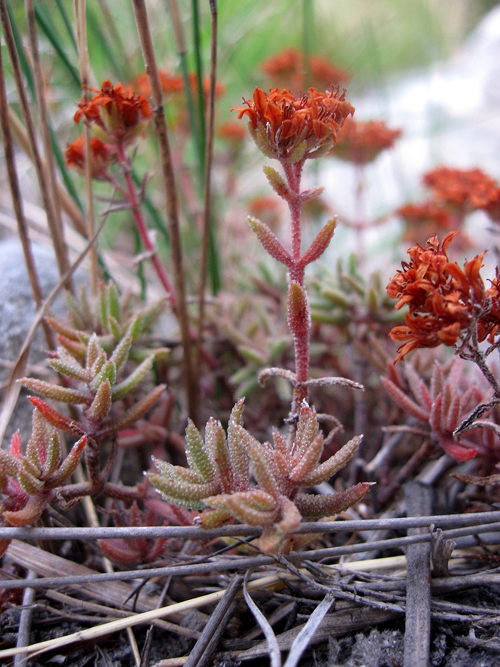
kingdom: Plantae
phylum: Tracheophyta
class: Magnoliopsida
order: Saxifragales
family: Crassulaceae
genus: Crassula
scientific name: Crassula pruinosa
